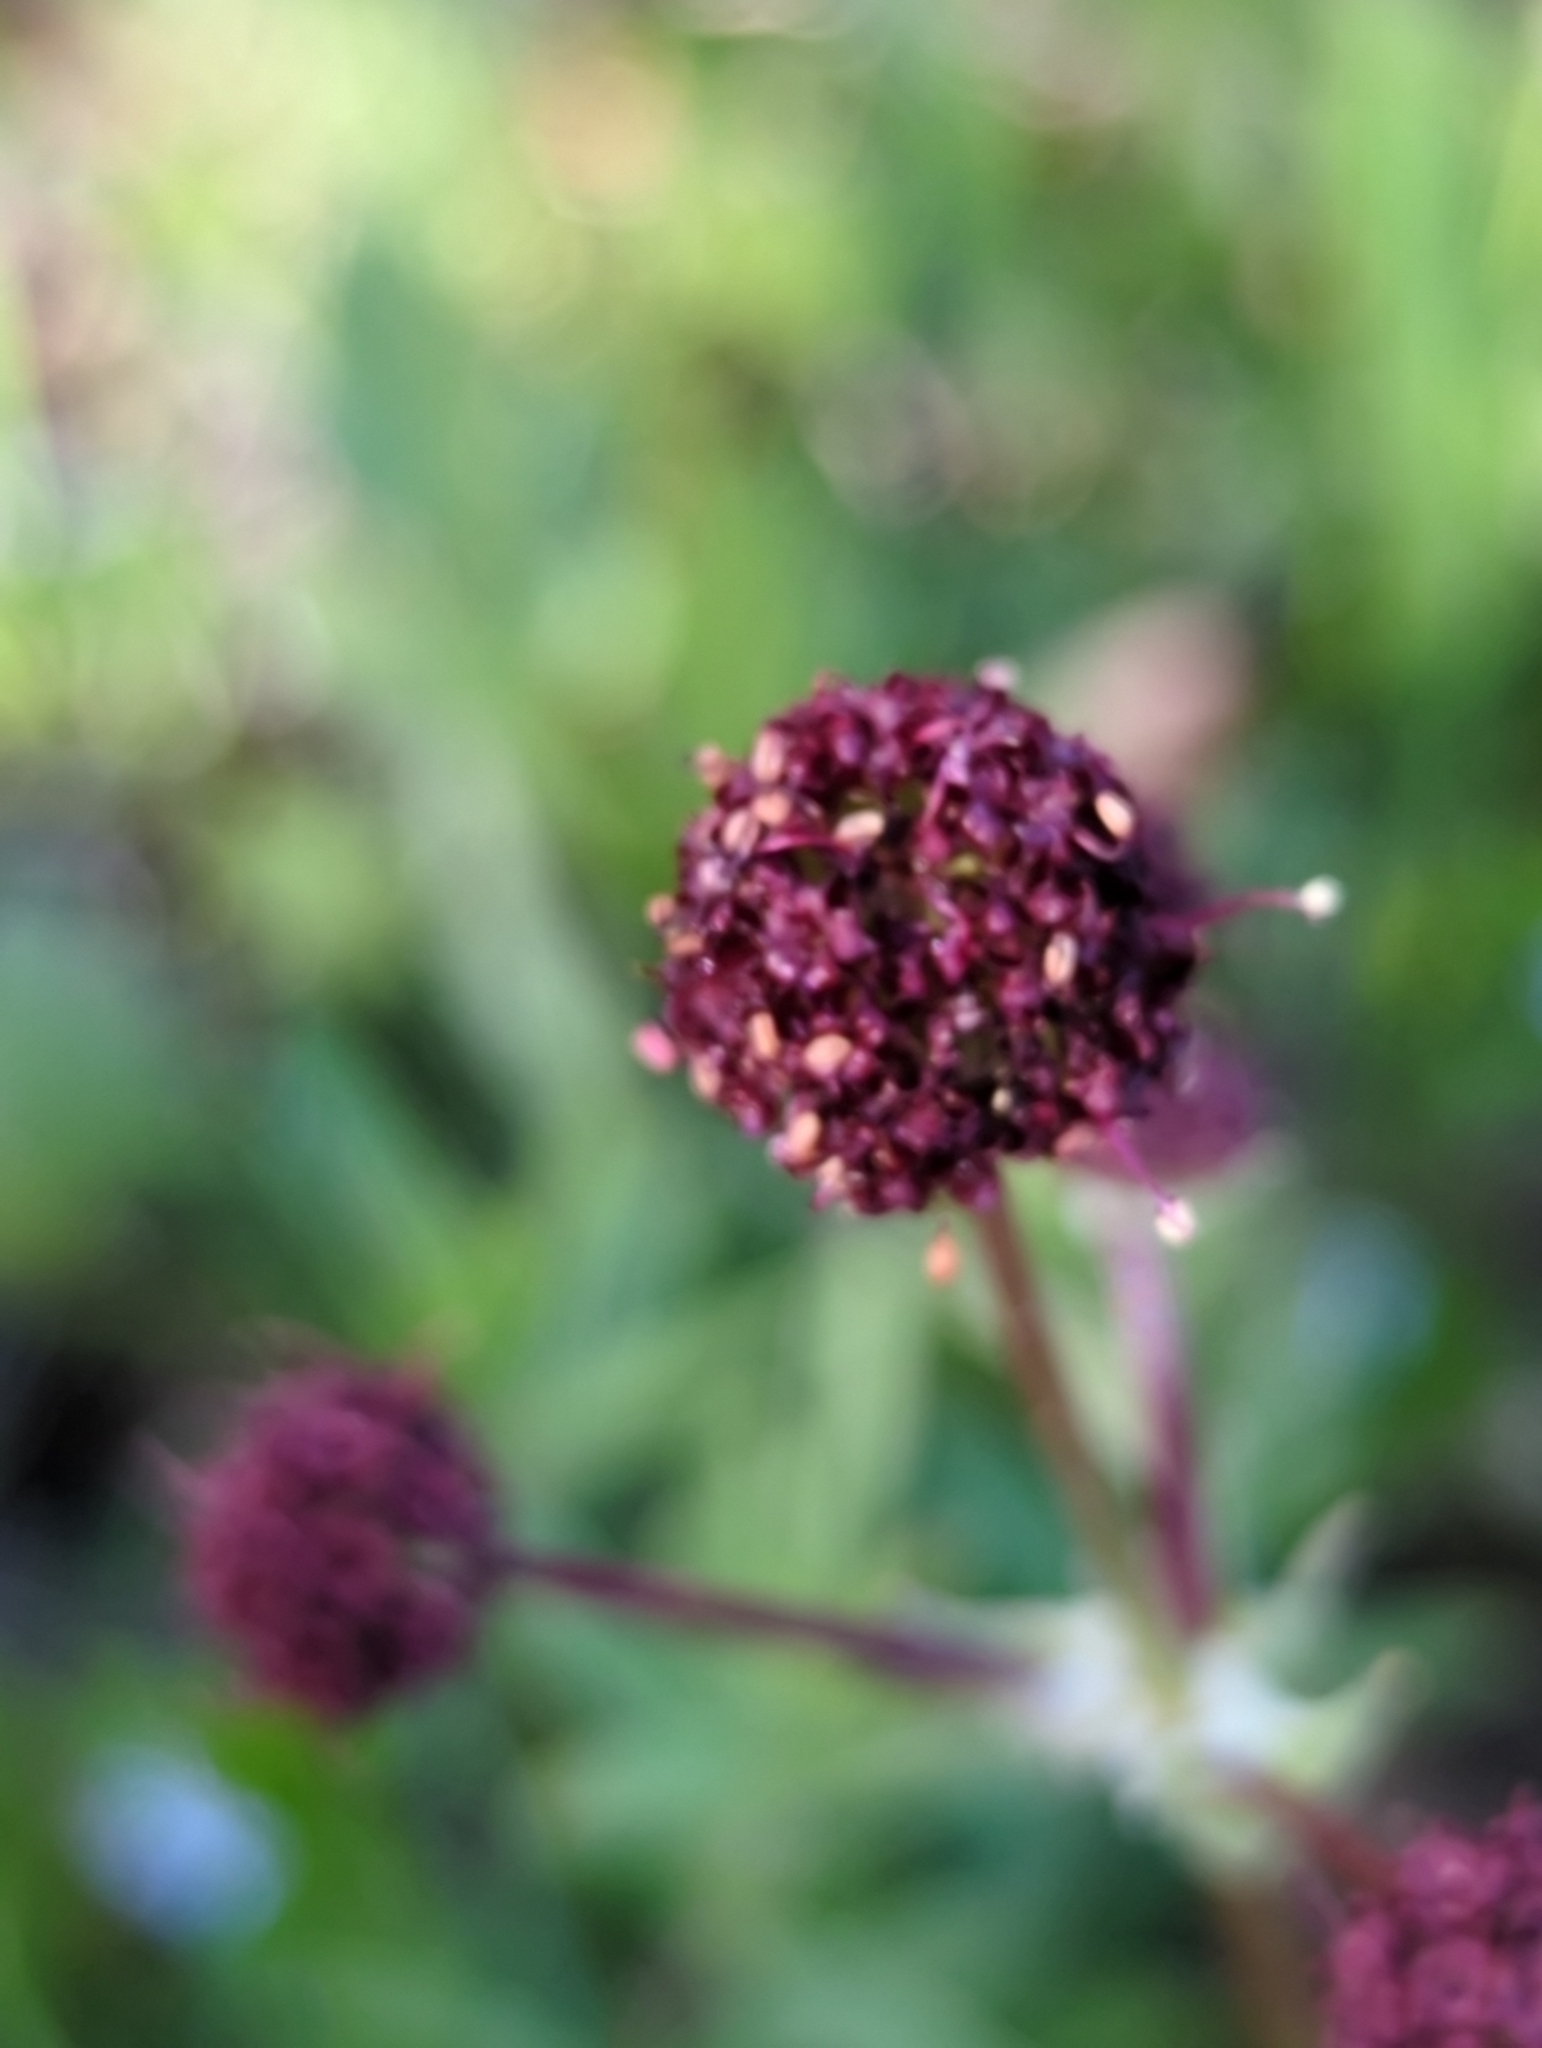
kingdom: Plantae
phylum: Tracheophyta
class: Magnoliopsida
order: Apiales
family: Apiaceae
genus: Sanicula
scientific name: Sanicula bipinnatifida
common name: Shoe-buttons
